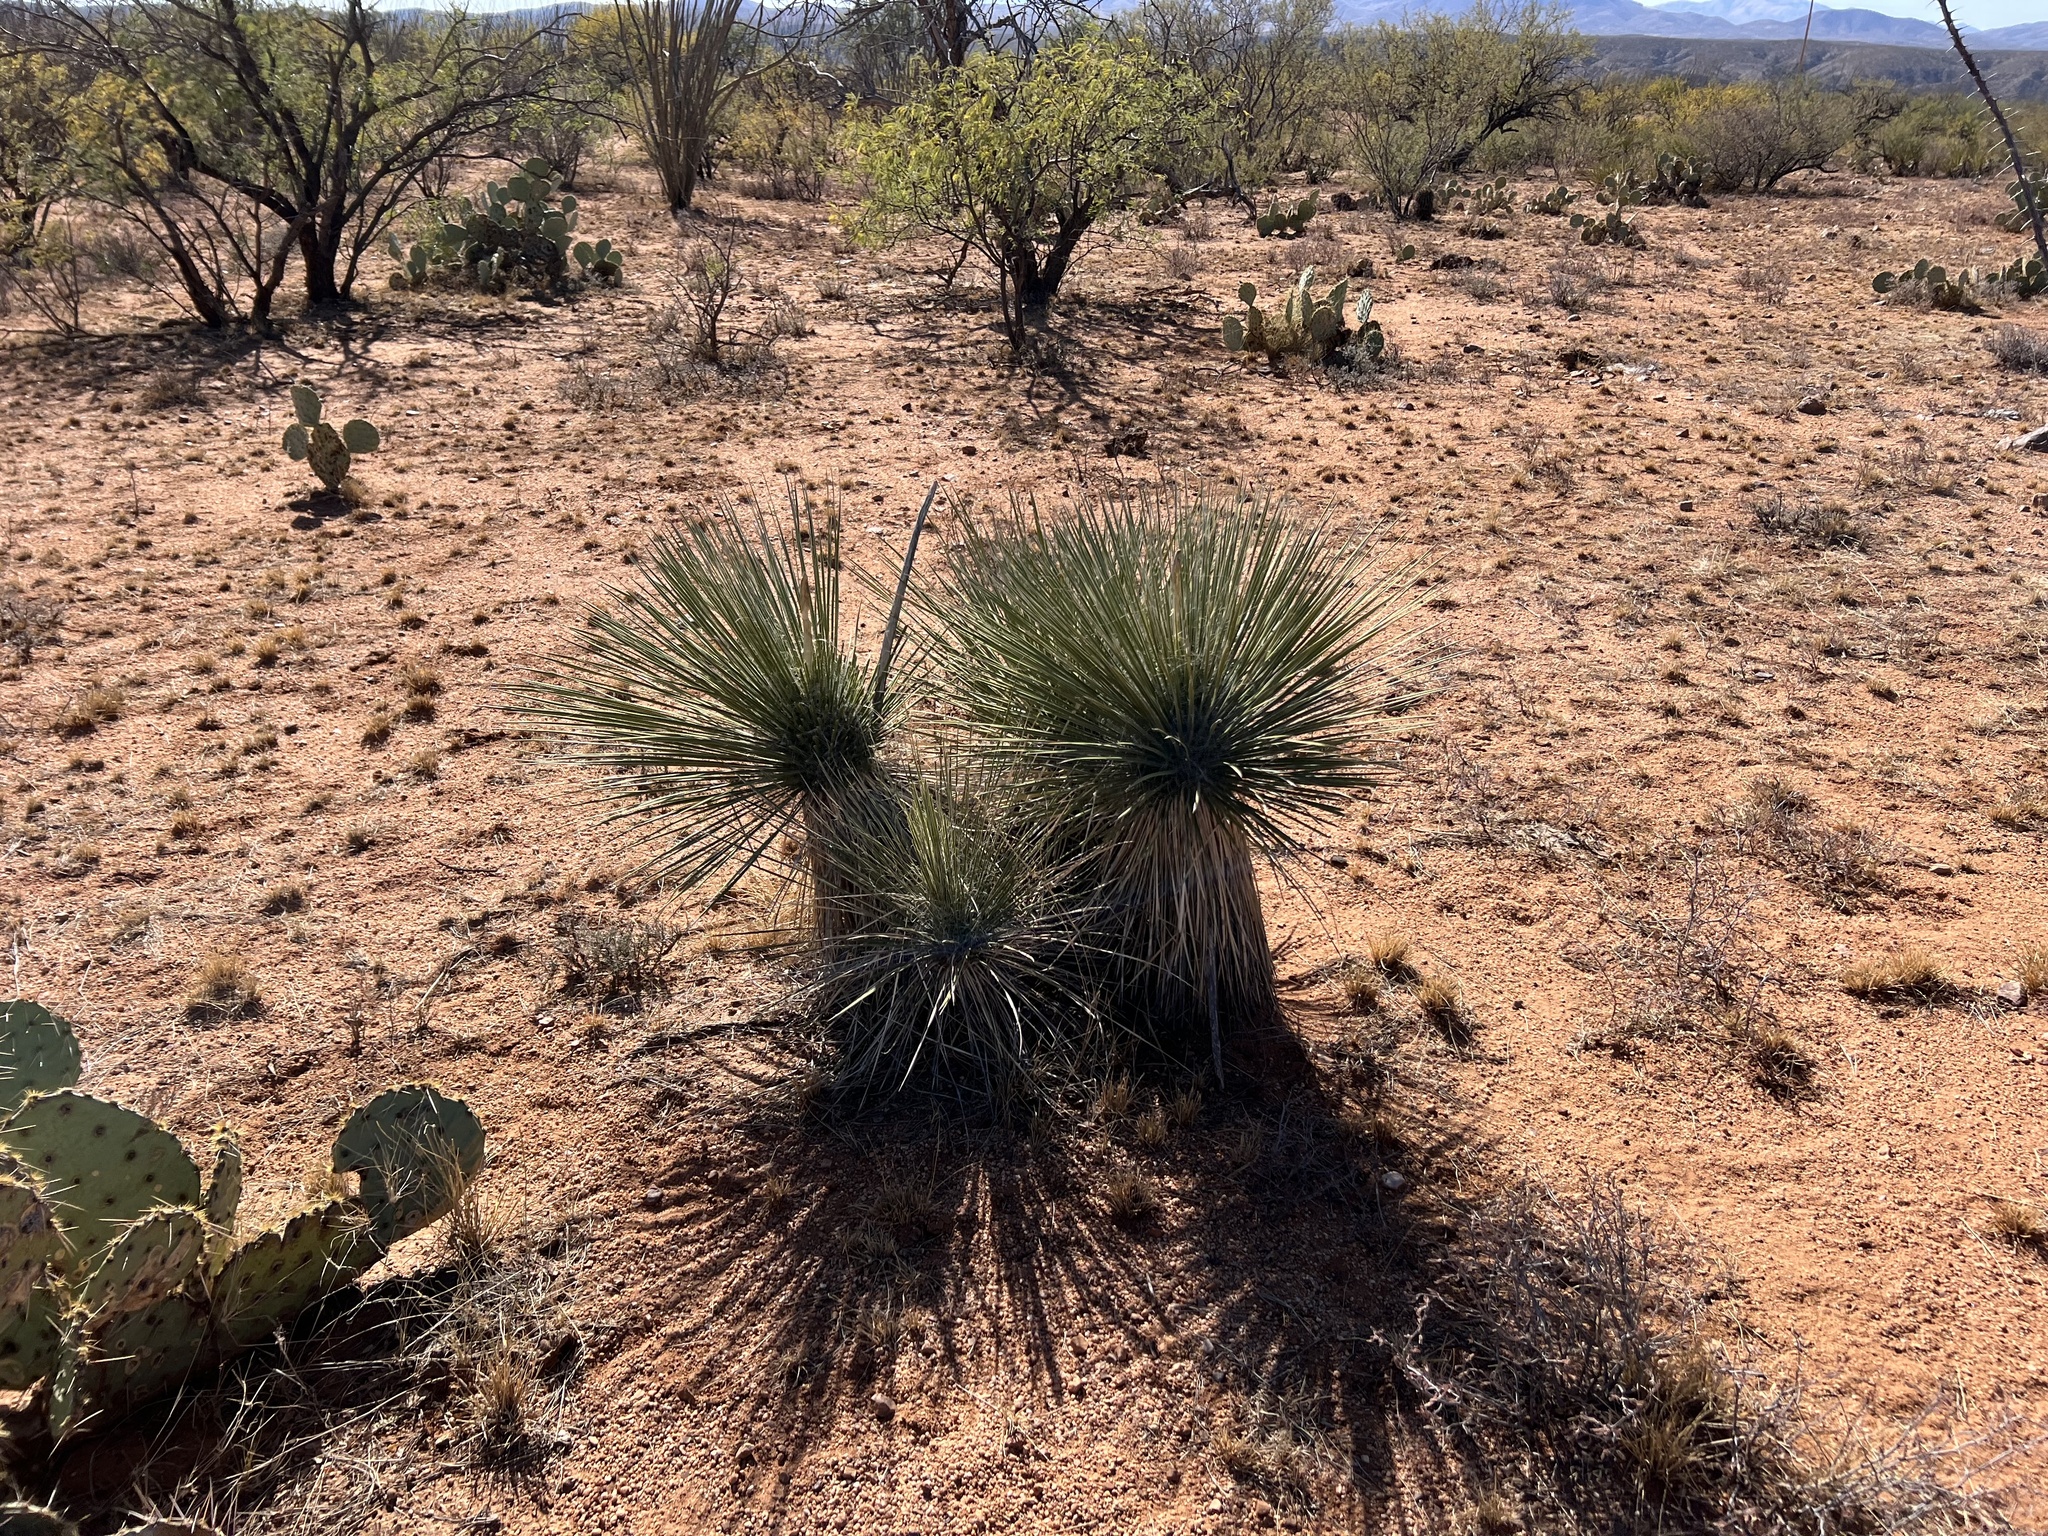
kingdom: Plantae
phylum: Tracheophyta
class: Liliopsida
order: Asparagales
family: Asparagaceae
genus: Yucca
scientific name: Yucca elata
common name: Palmella
